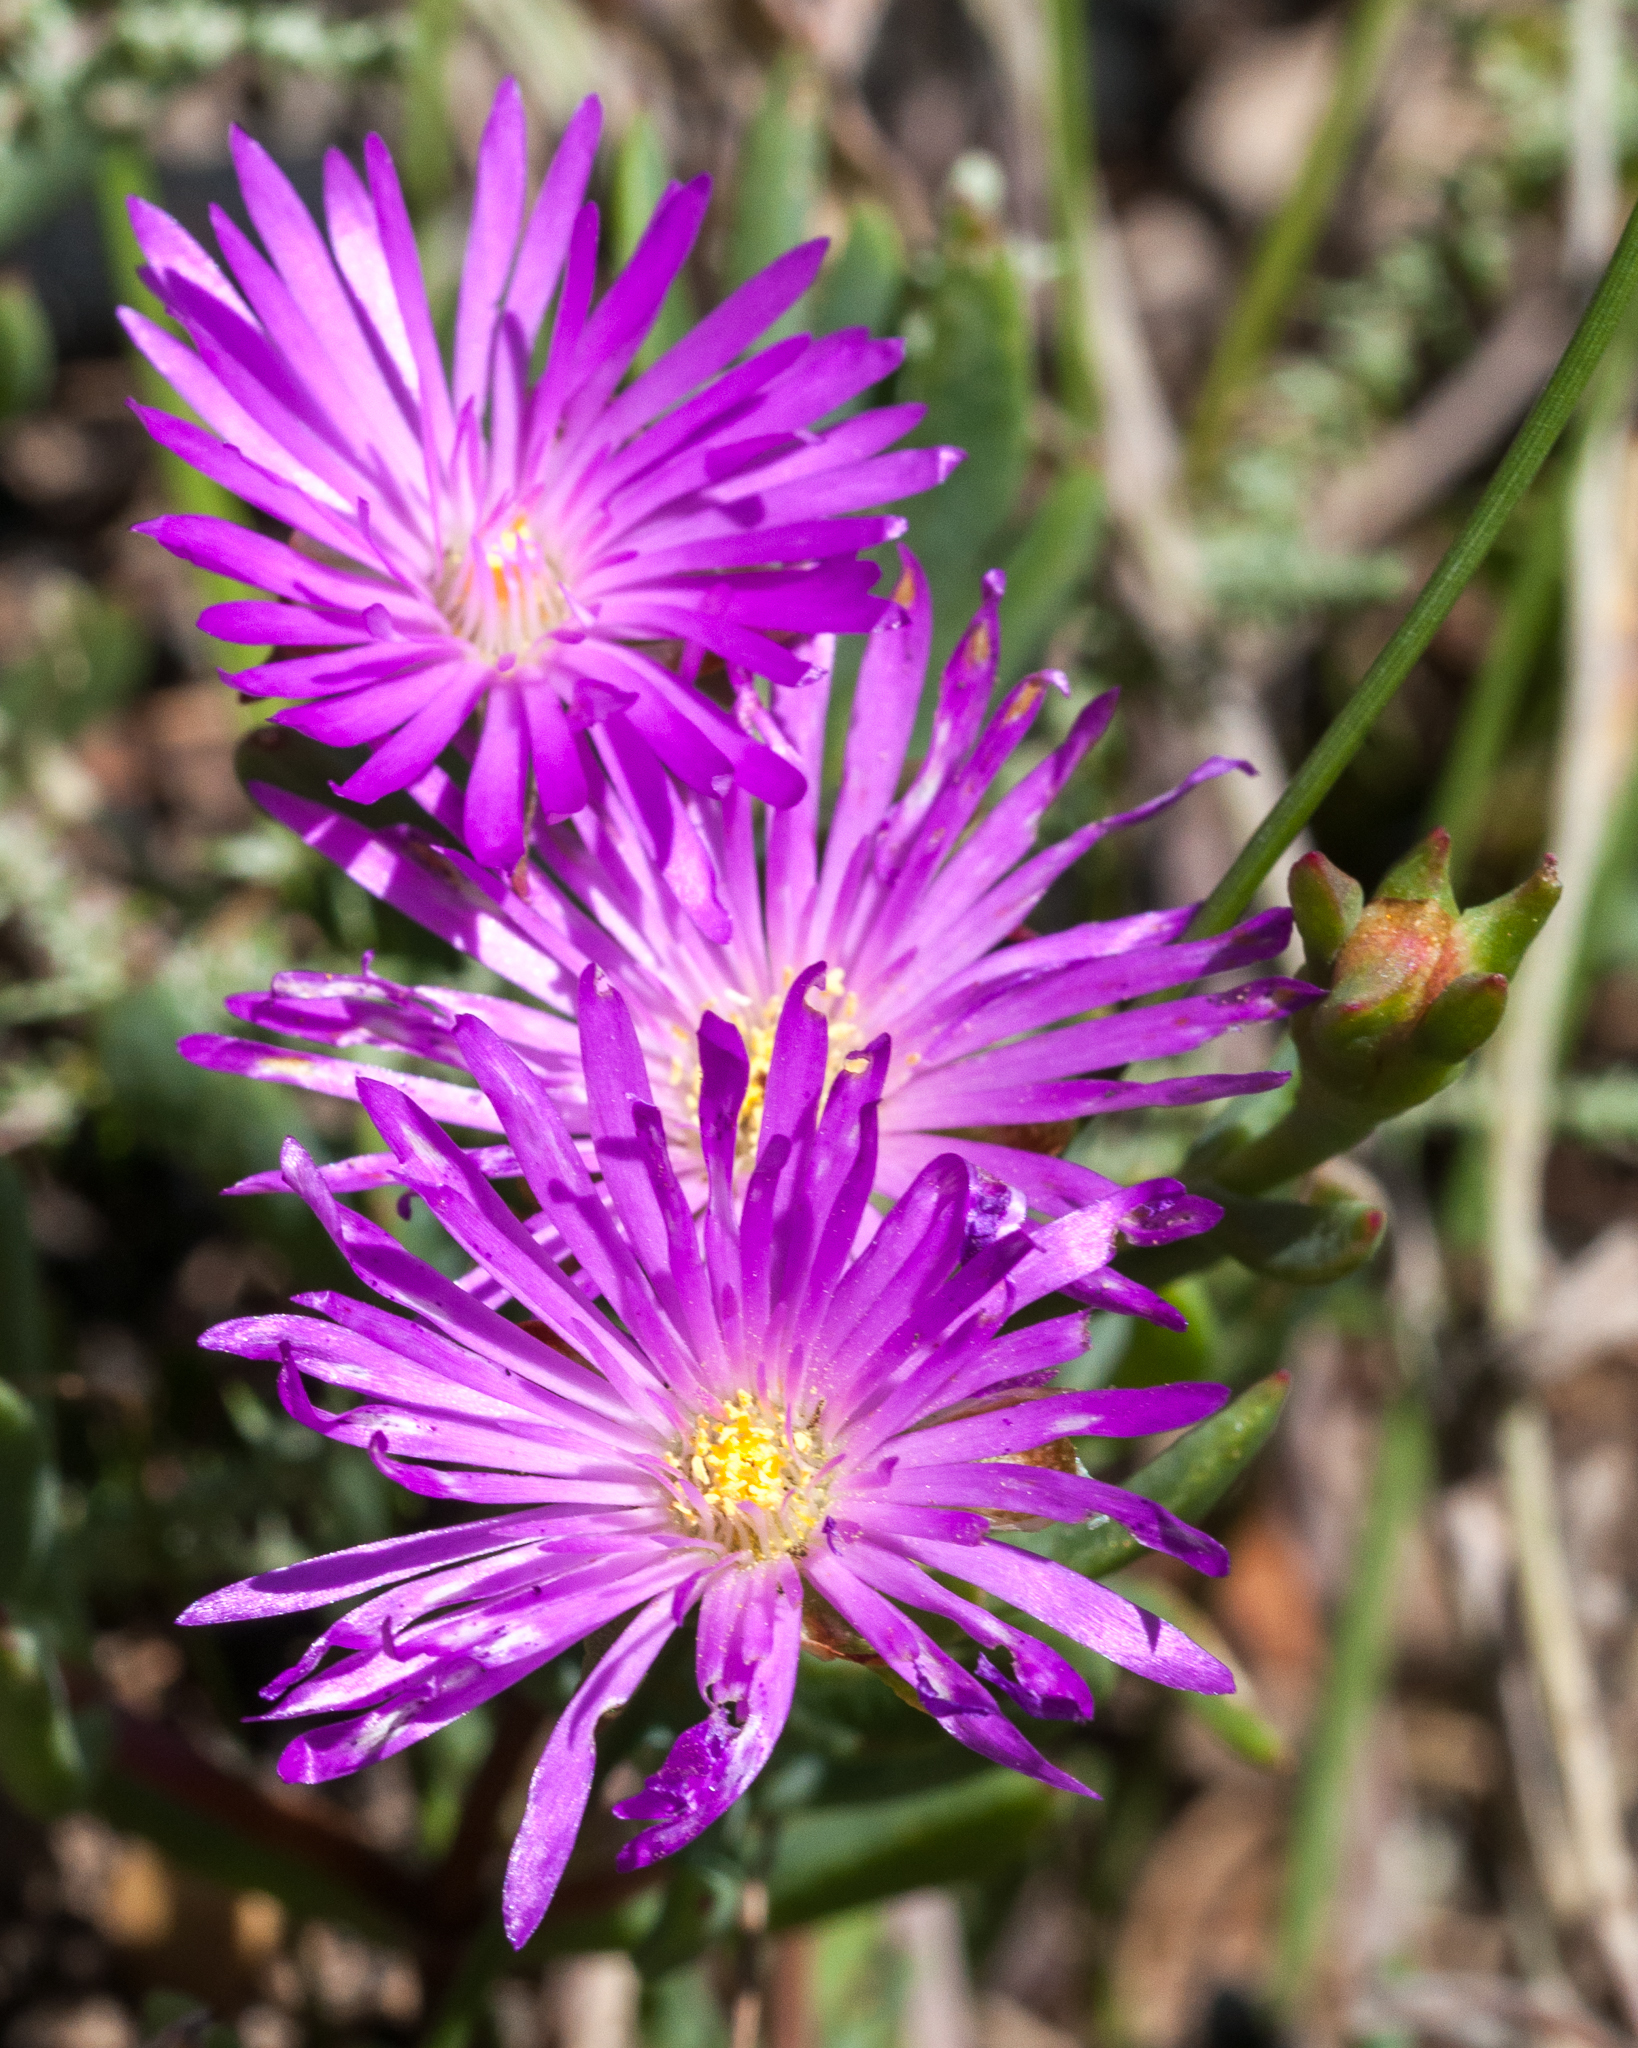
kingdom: Plantae
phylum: Tracheophyta
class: Magnoliopsida
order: Caryophyllales
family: Aizoaceae
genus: Lampranthus
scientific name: Lampranthus glomeratus
